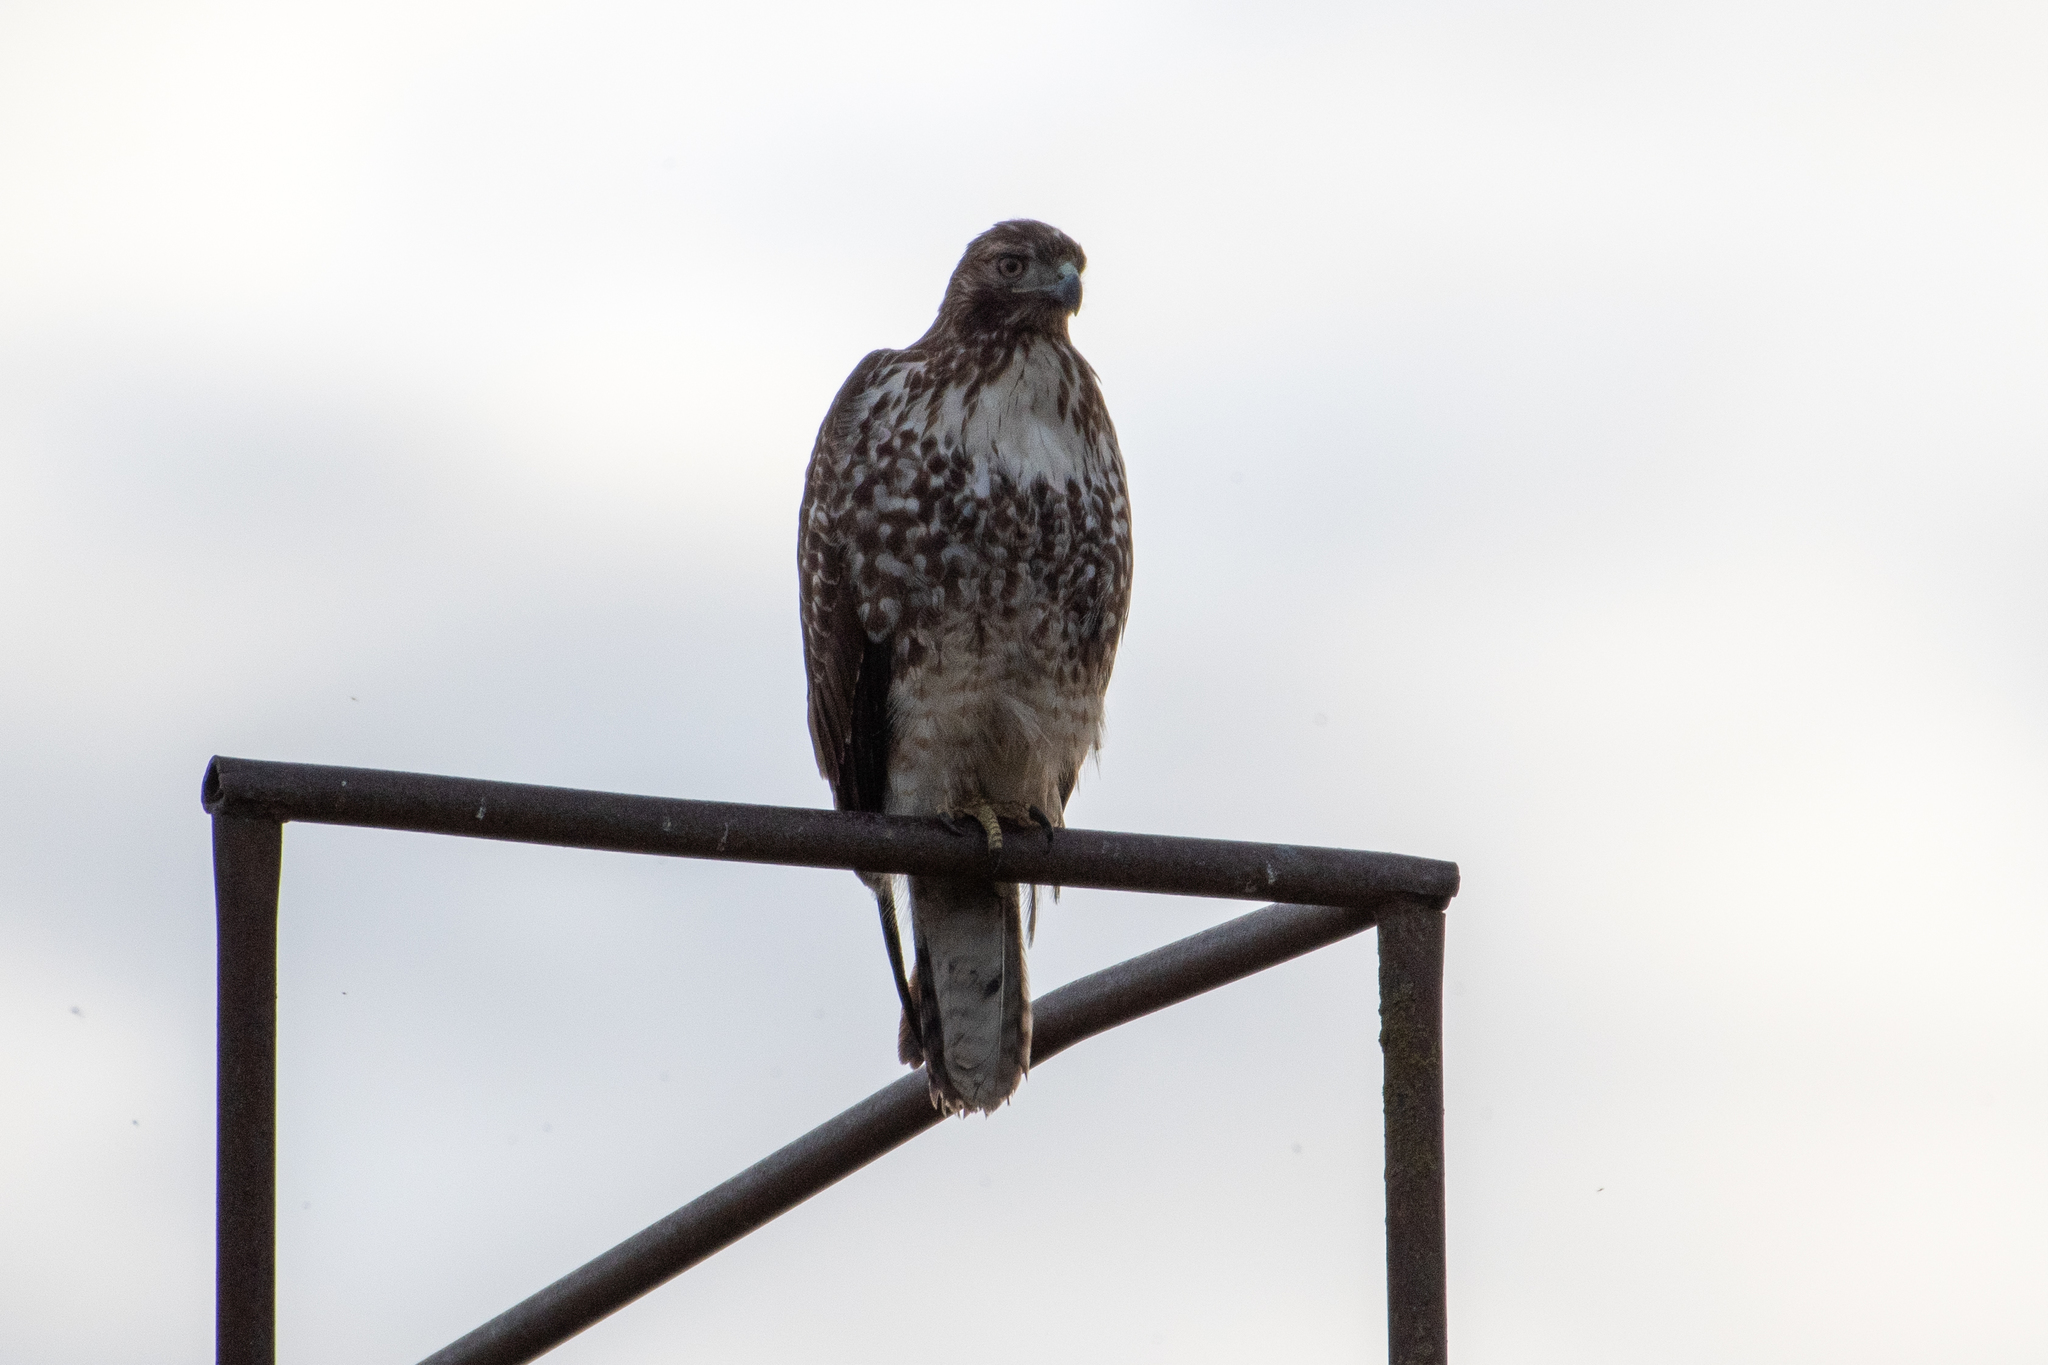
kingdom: Animalia
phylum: Chordata
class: Aves
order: Accipitriformes
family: Accipitridae
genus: Buteo
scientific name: Buteo jamaicensis
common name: Red-tailed hawk
